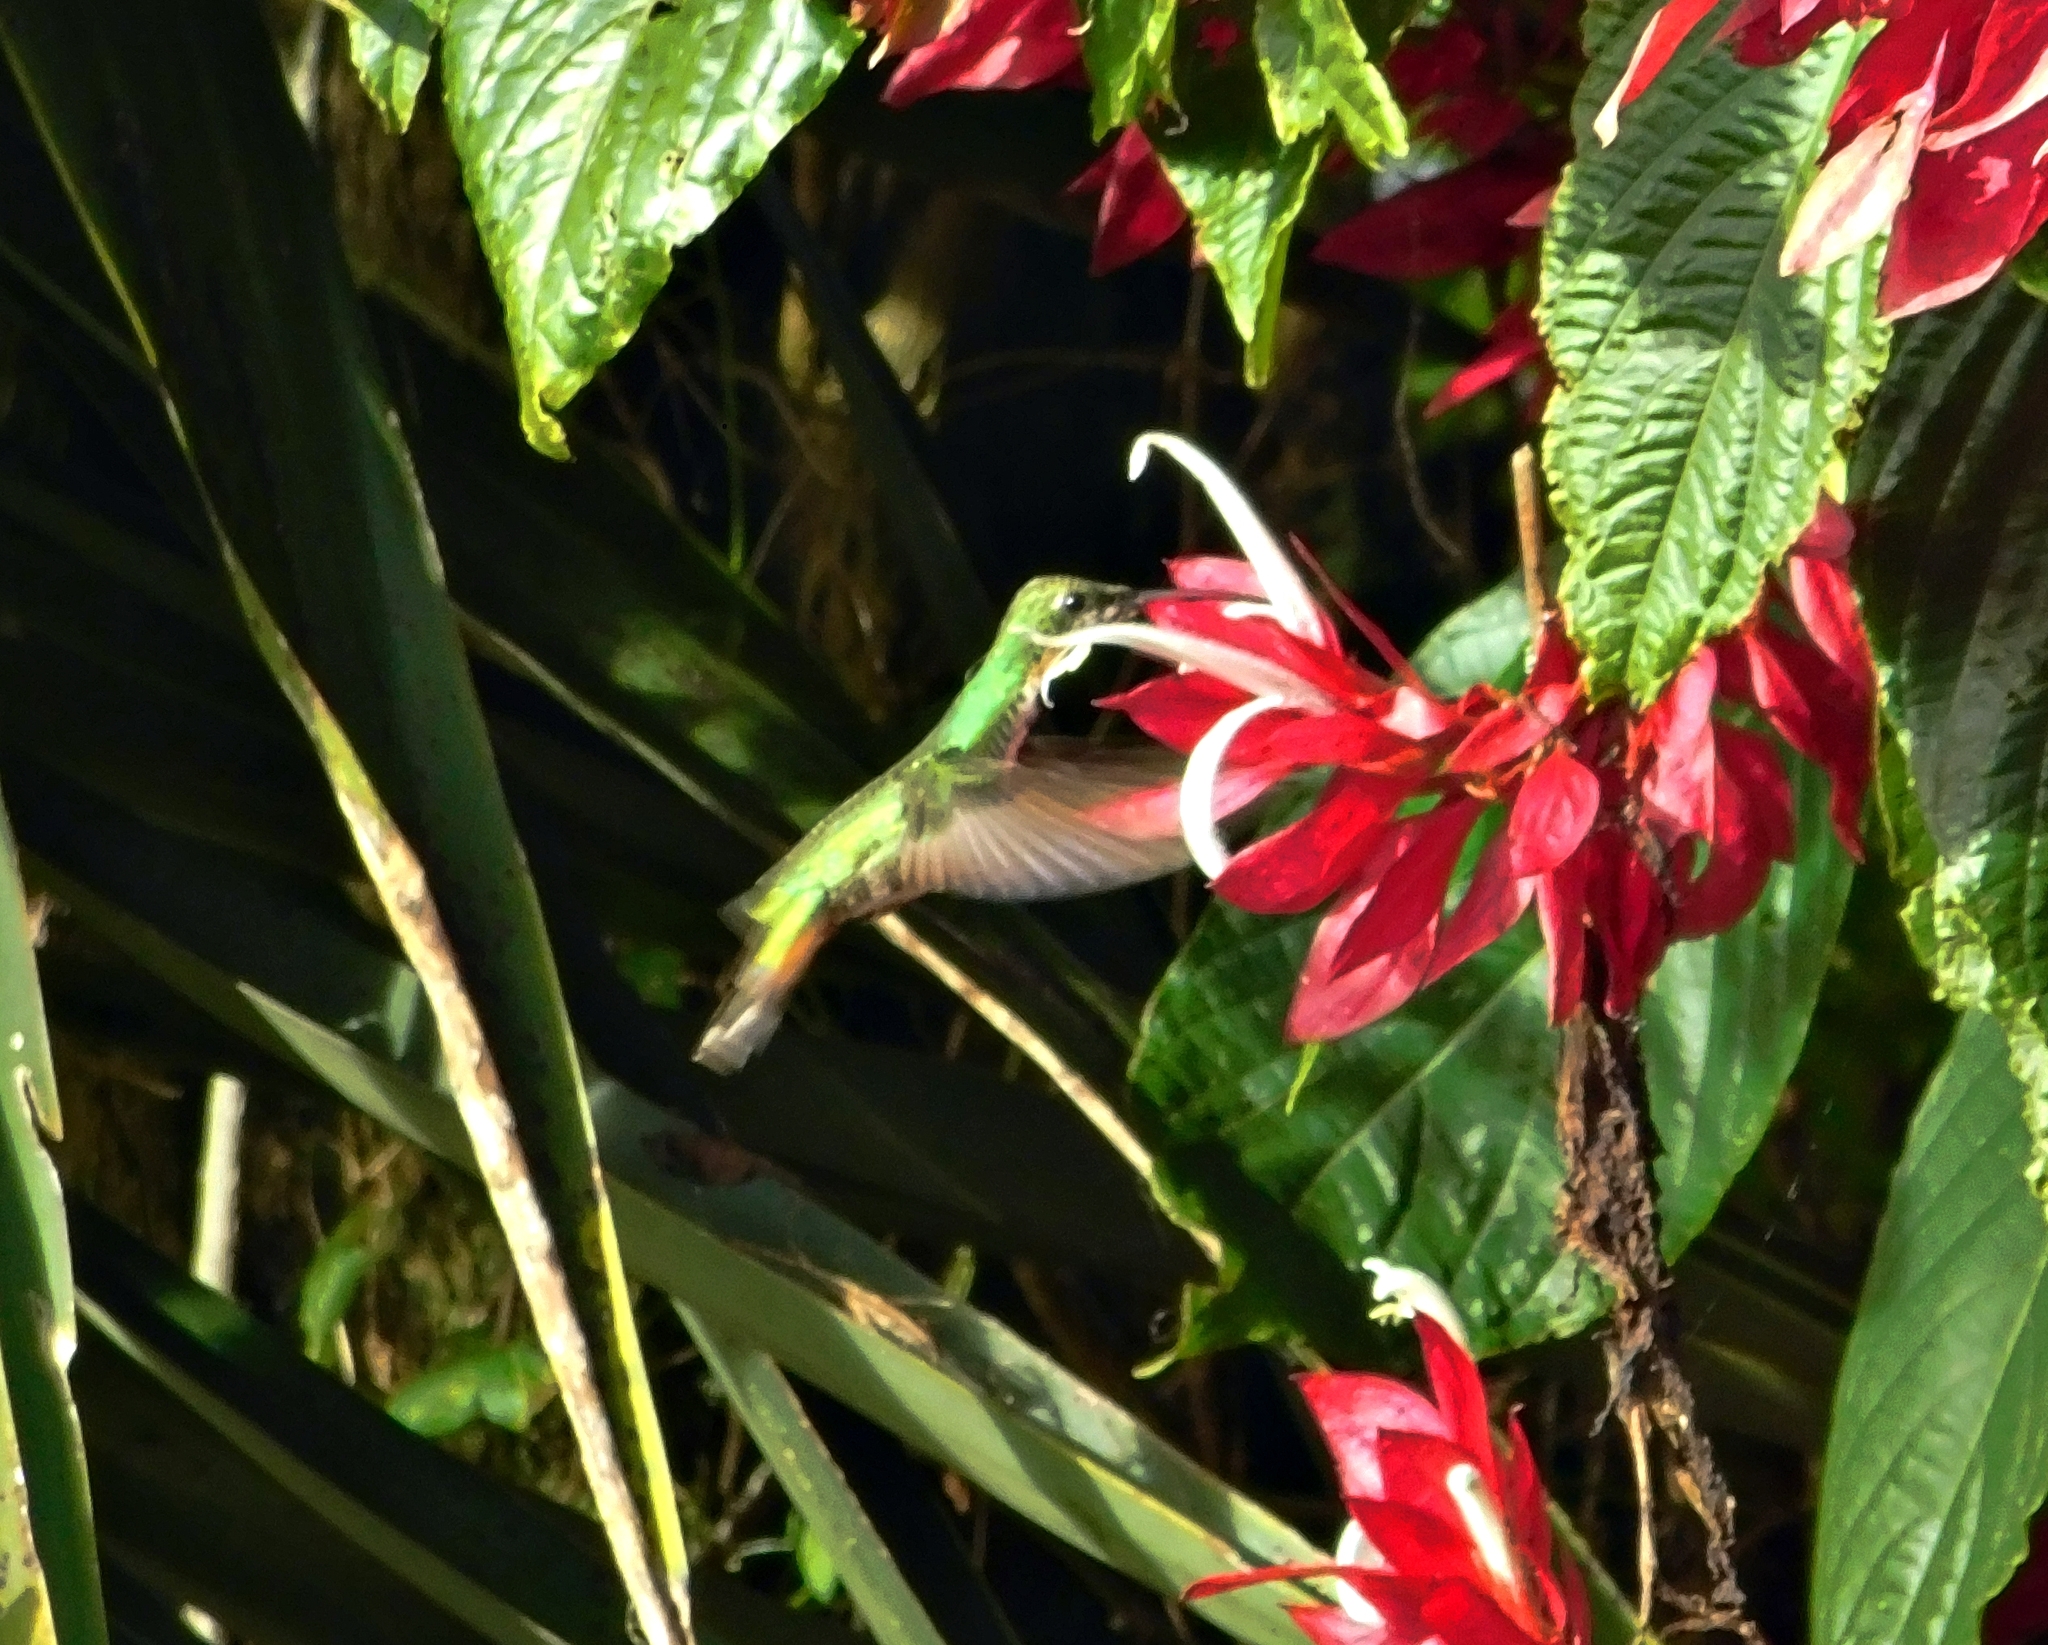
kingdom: Animalia
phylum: Chordata
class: Aves
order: Apodiformes
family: Trochilidae
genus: Anthracothorax
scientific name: Anthracothorax prevostii
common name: Green-breasted mango
